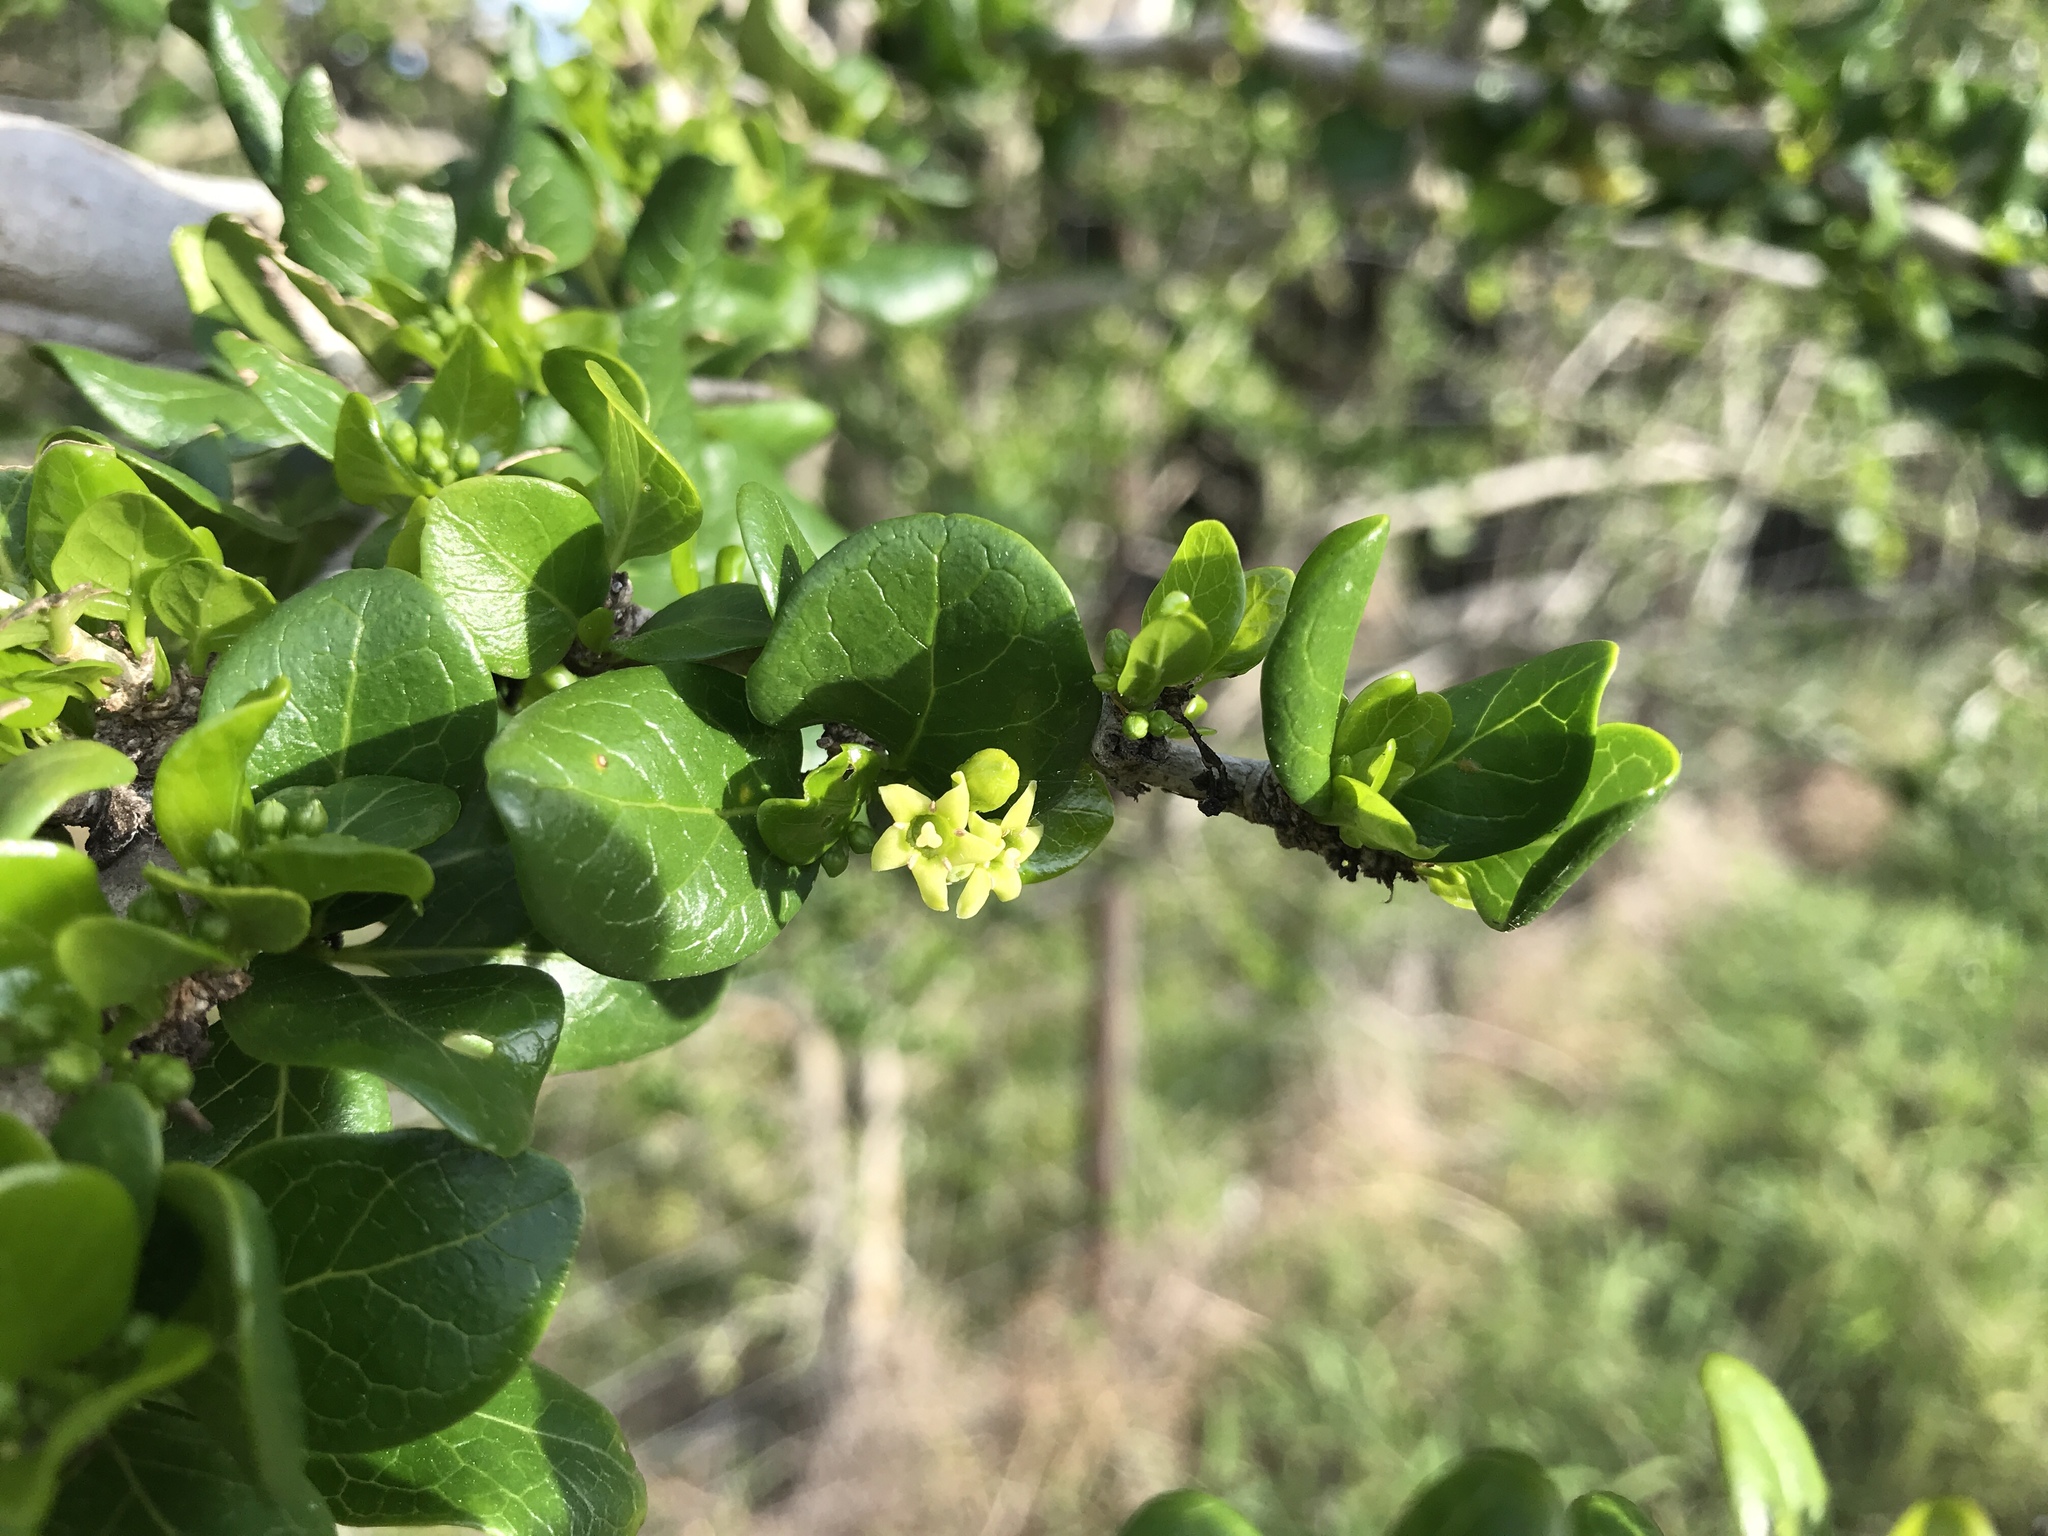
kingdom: Plantae
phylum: Tracheophyta
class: Magnoliopsida
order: Gentianales
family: Rubiaceae
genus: Catunaregam
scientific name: Catunaregam spinosa
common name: Emetic-nut
